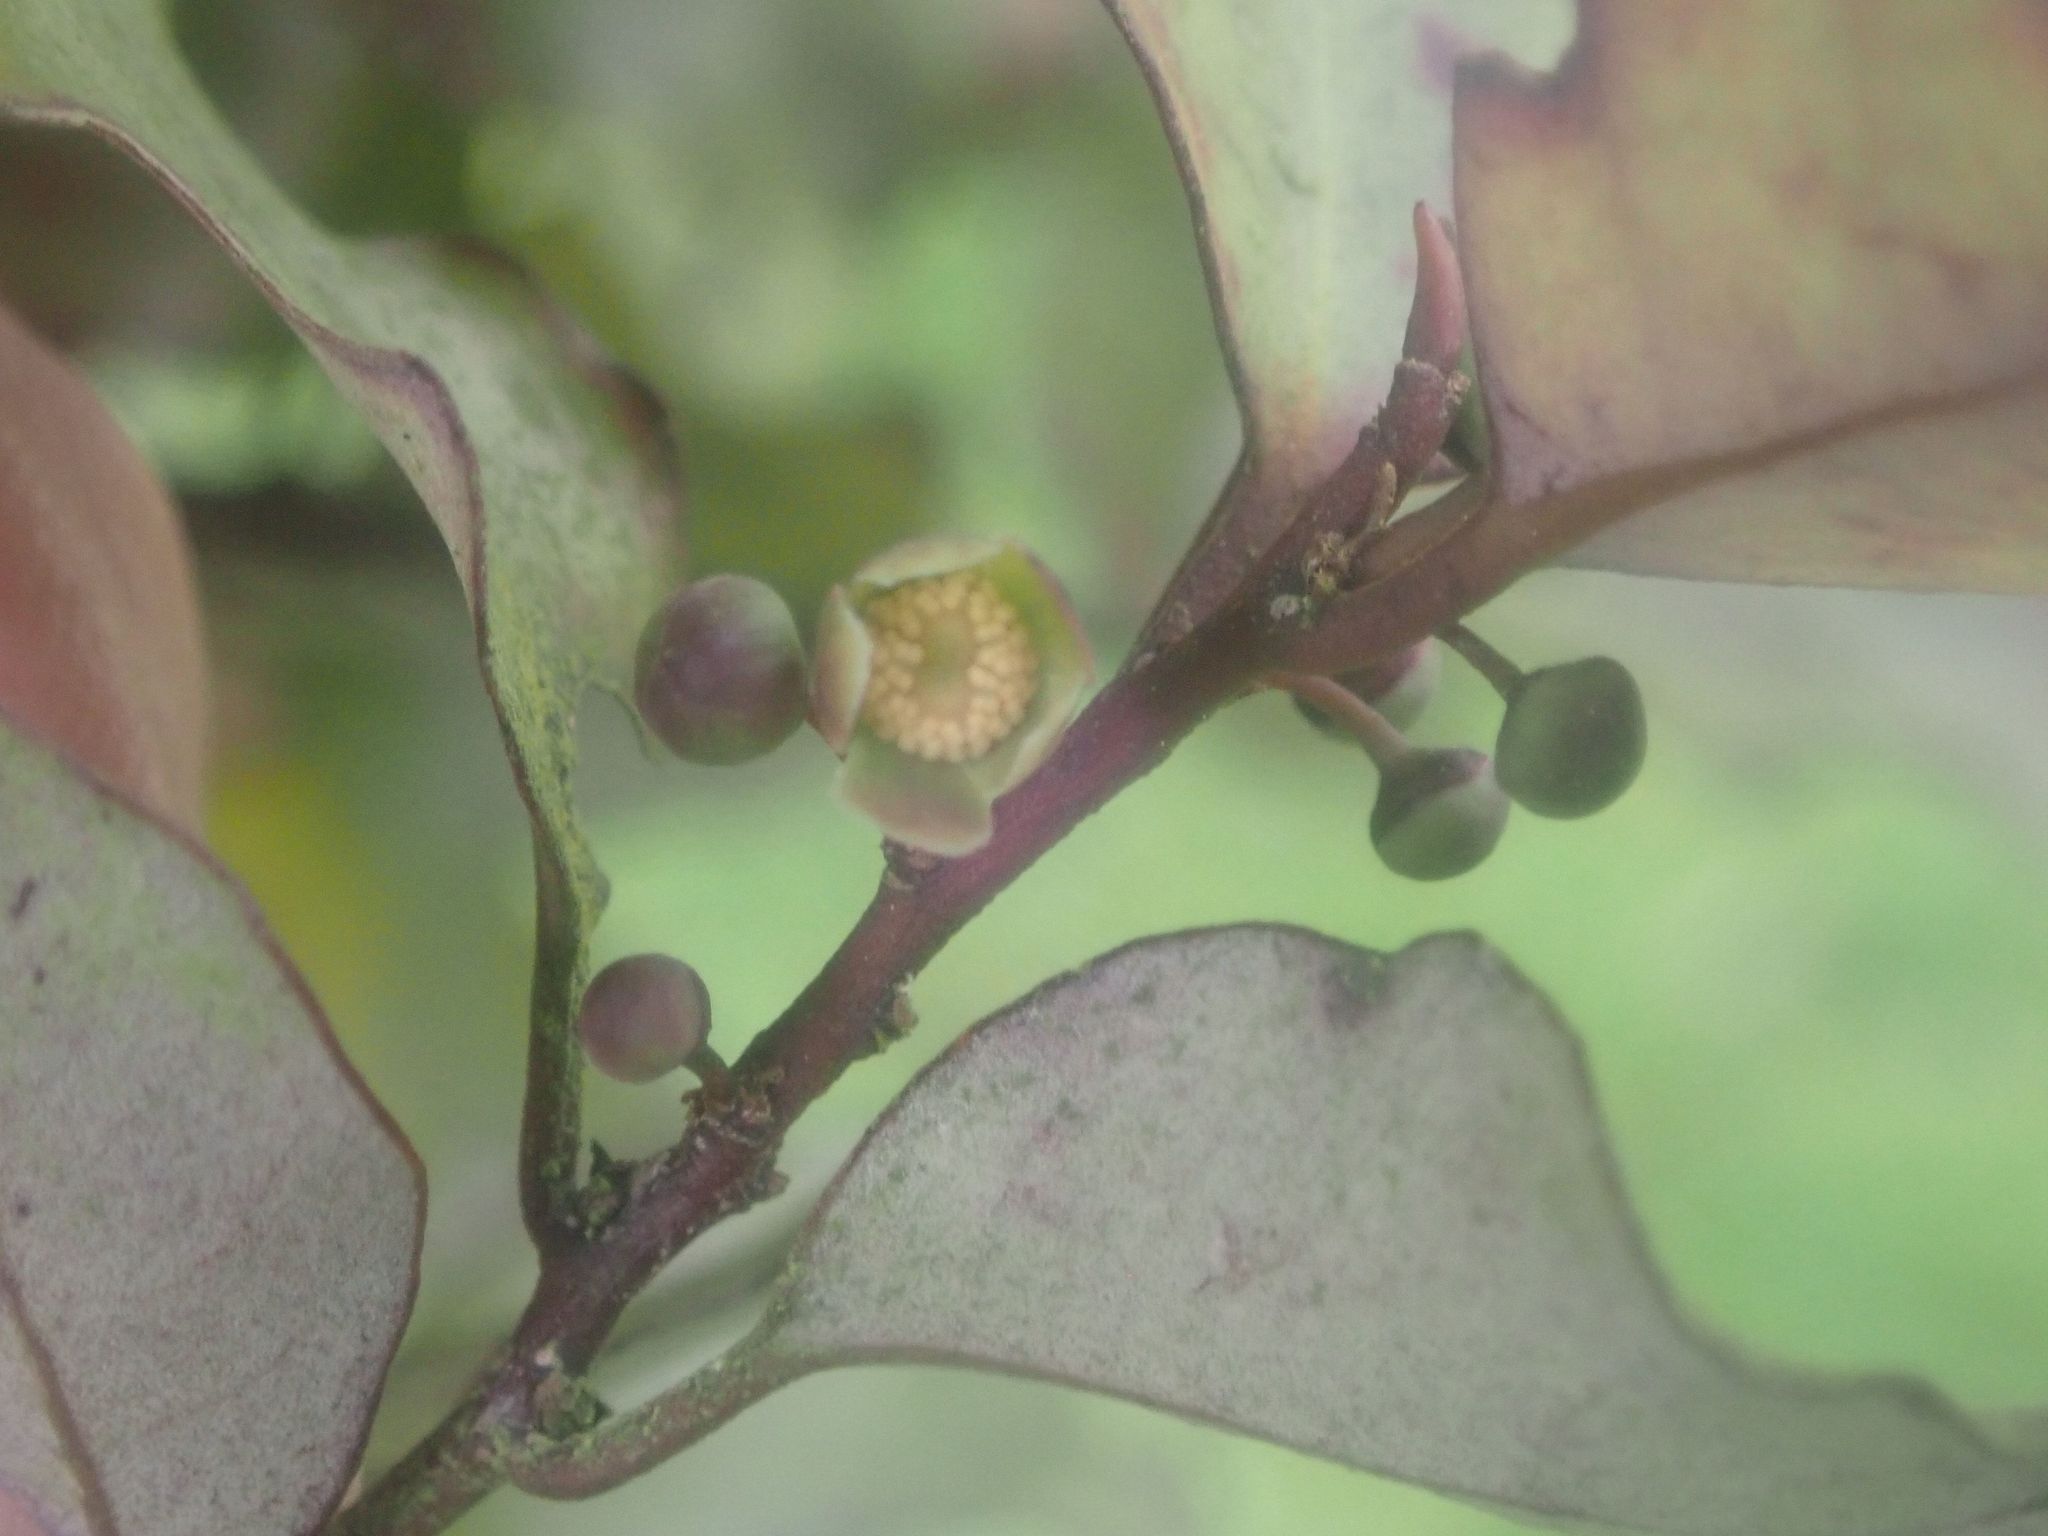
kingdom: Plantae
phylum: Tracheophyta
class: Magnoliopsida
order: Canellales
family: Winteraceae
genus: Pseudowintera
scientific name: Pseudowintera colorata
